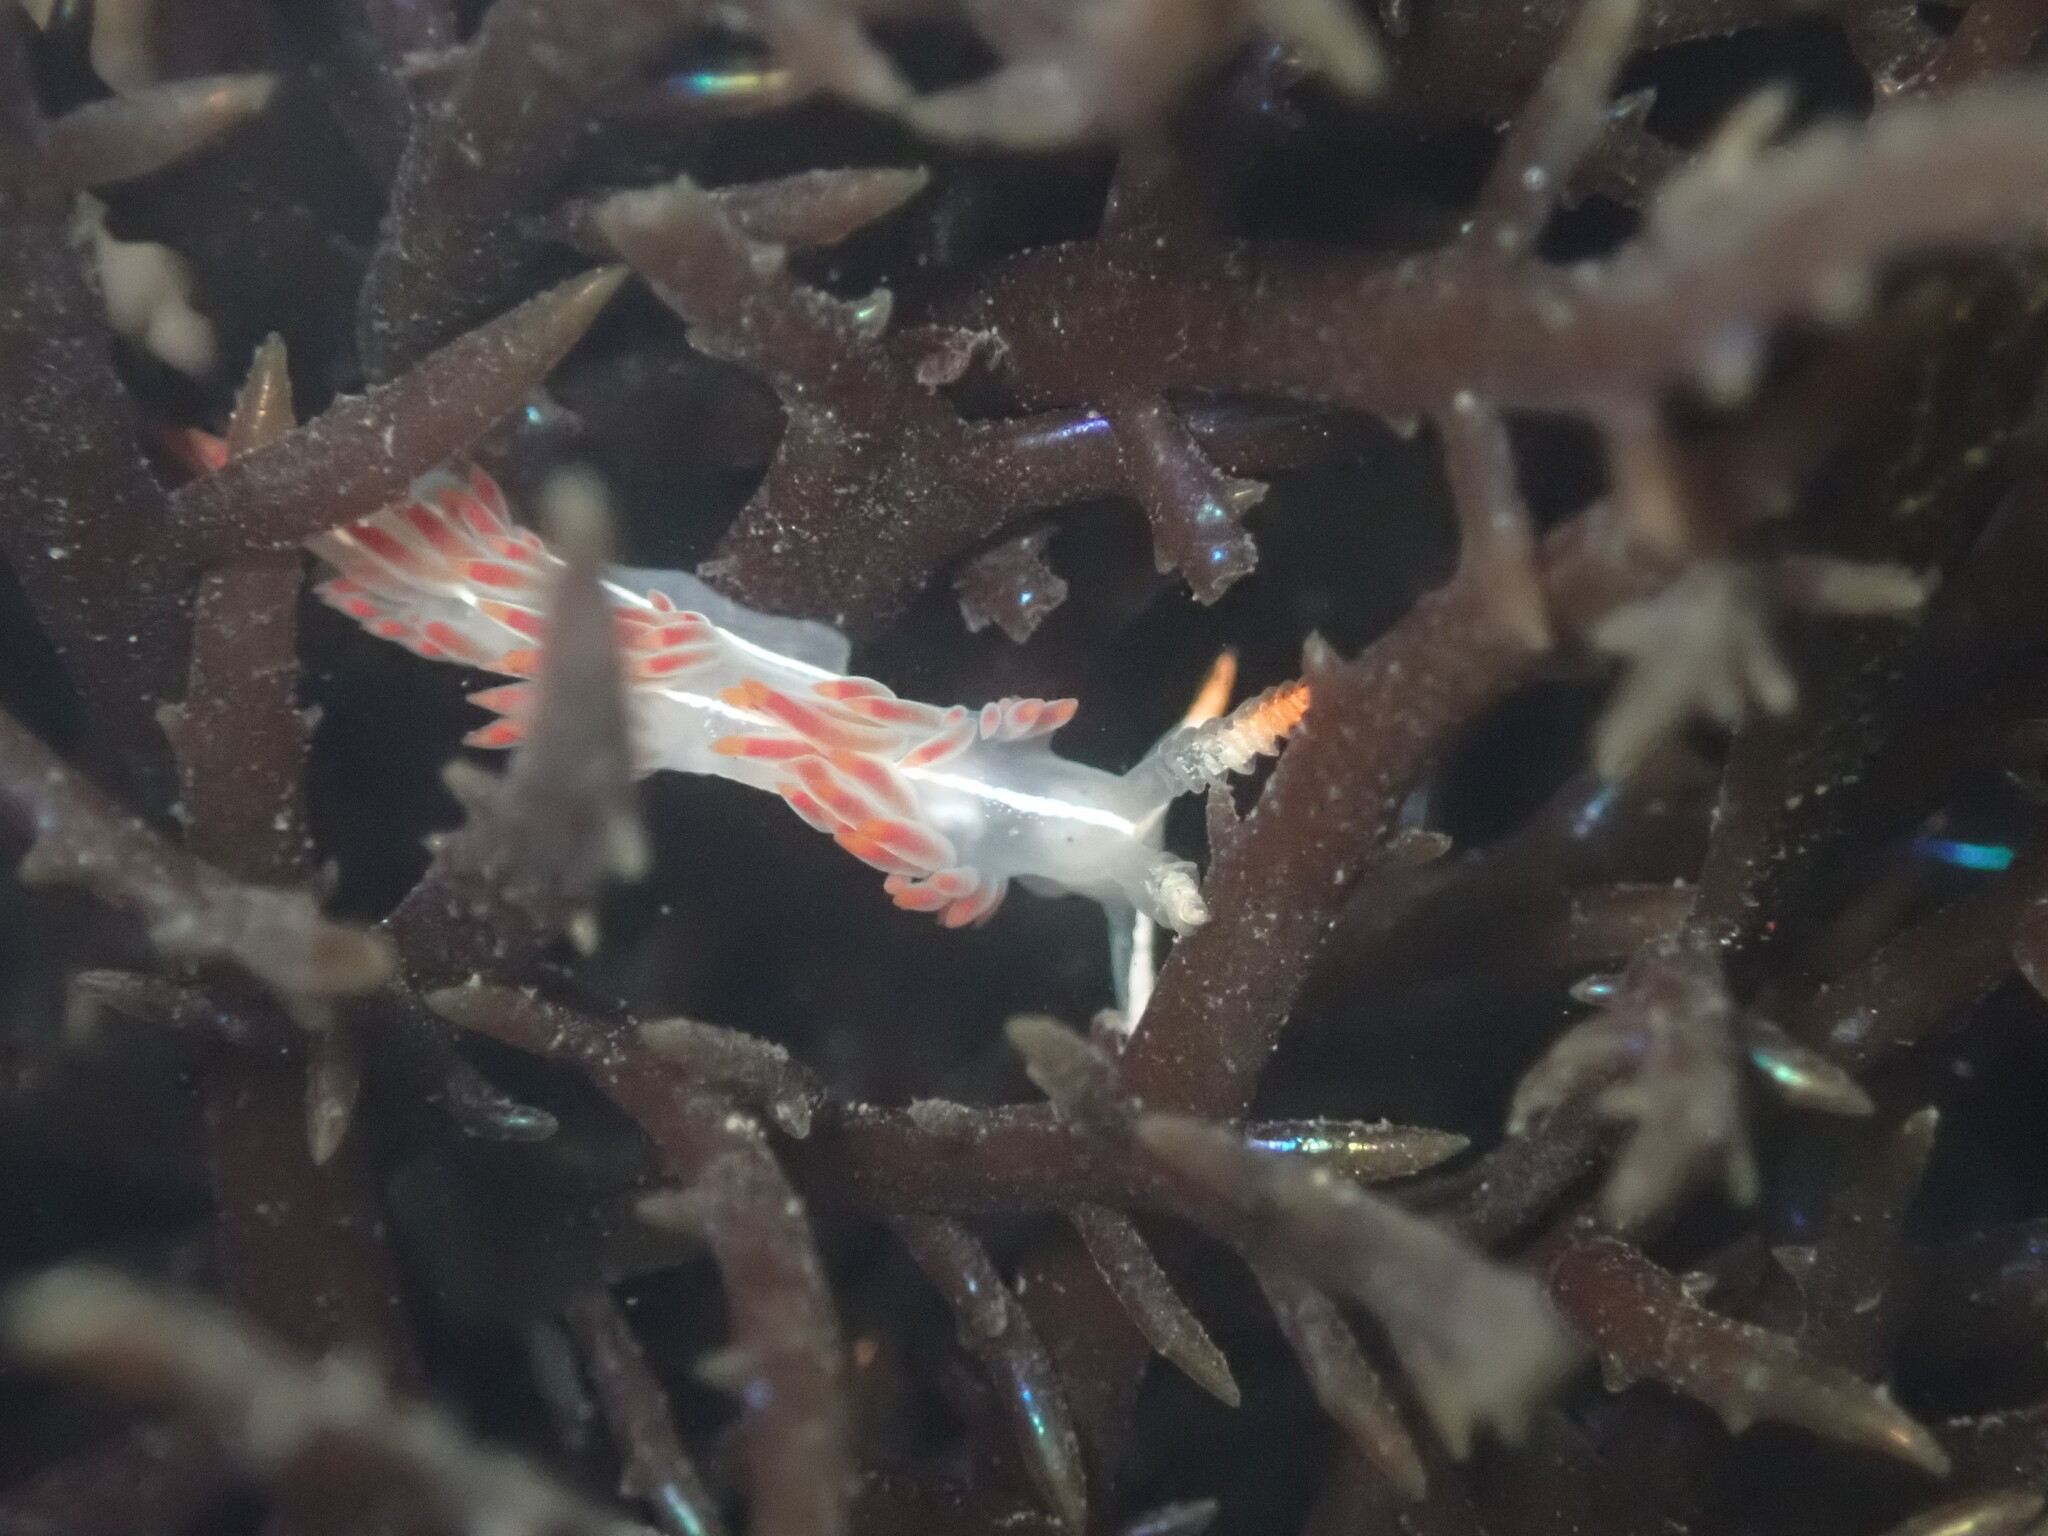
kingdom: Animalia
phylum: Mollusca
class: Gastropoda
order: Nudibranchia
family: Coryphellidae
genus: Coryphella
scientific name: Coryphella trilineata
